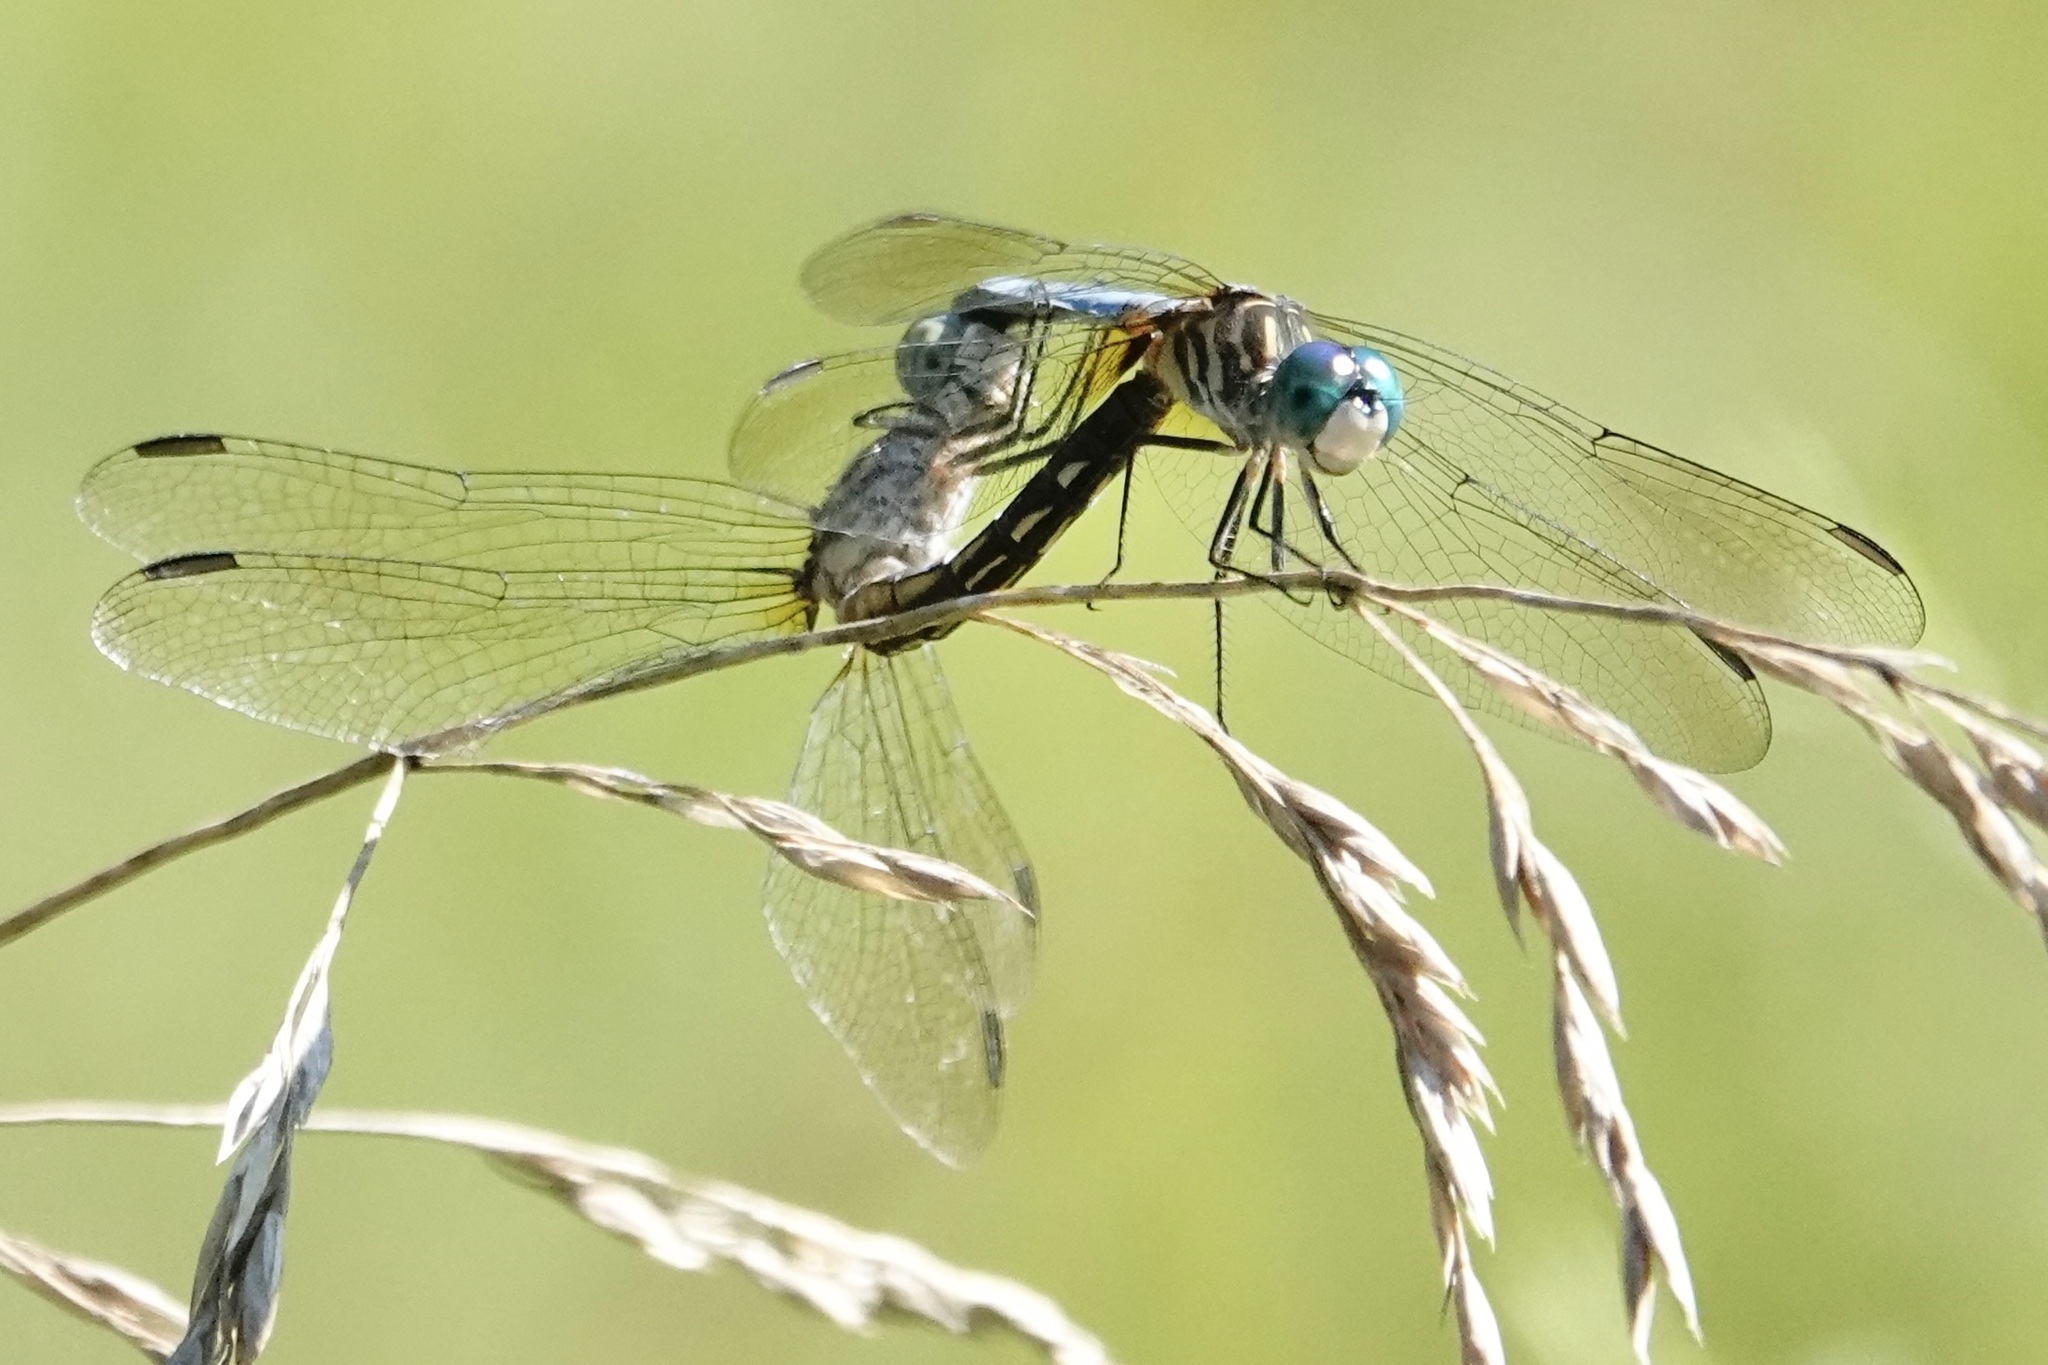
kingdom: Animalia
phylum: Arthropoda
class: Insecta
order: Odonata
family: Libellulidae
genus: Pachydiplax
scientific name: Pachydiplax longipennis
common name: Blue dasher
